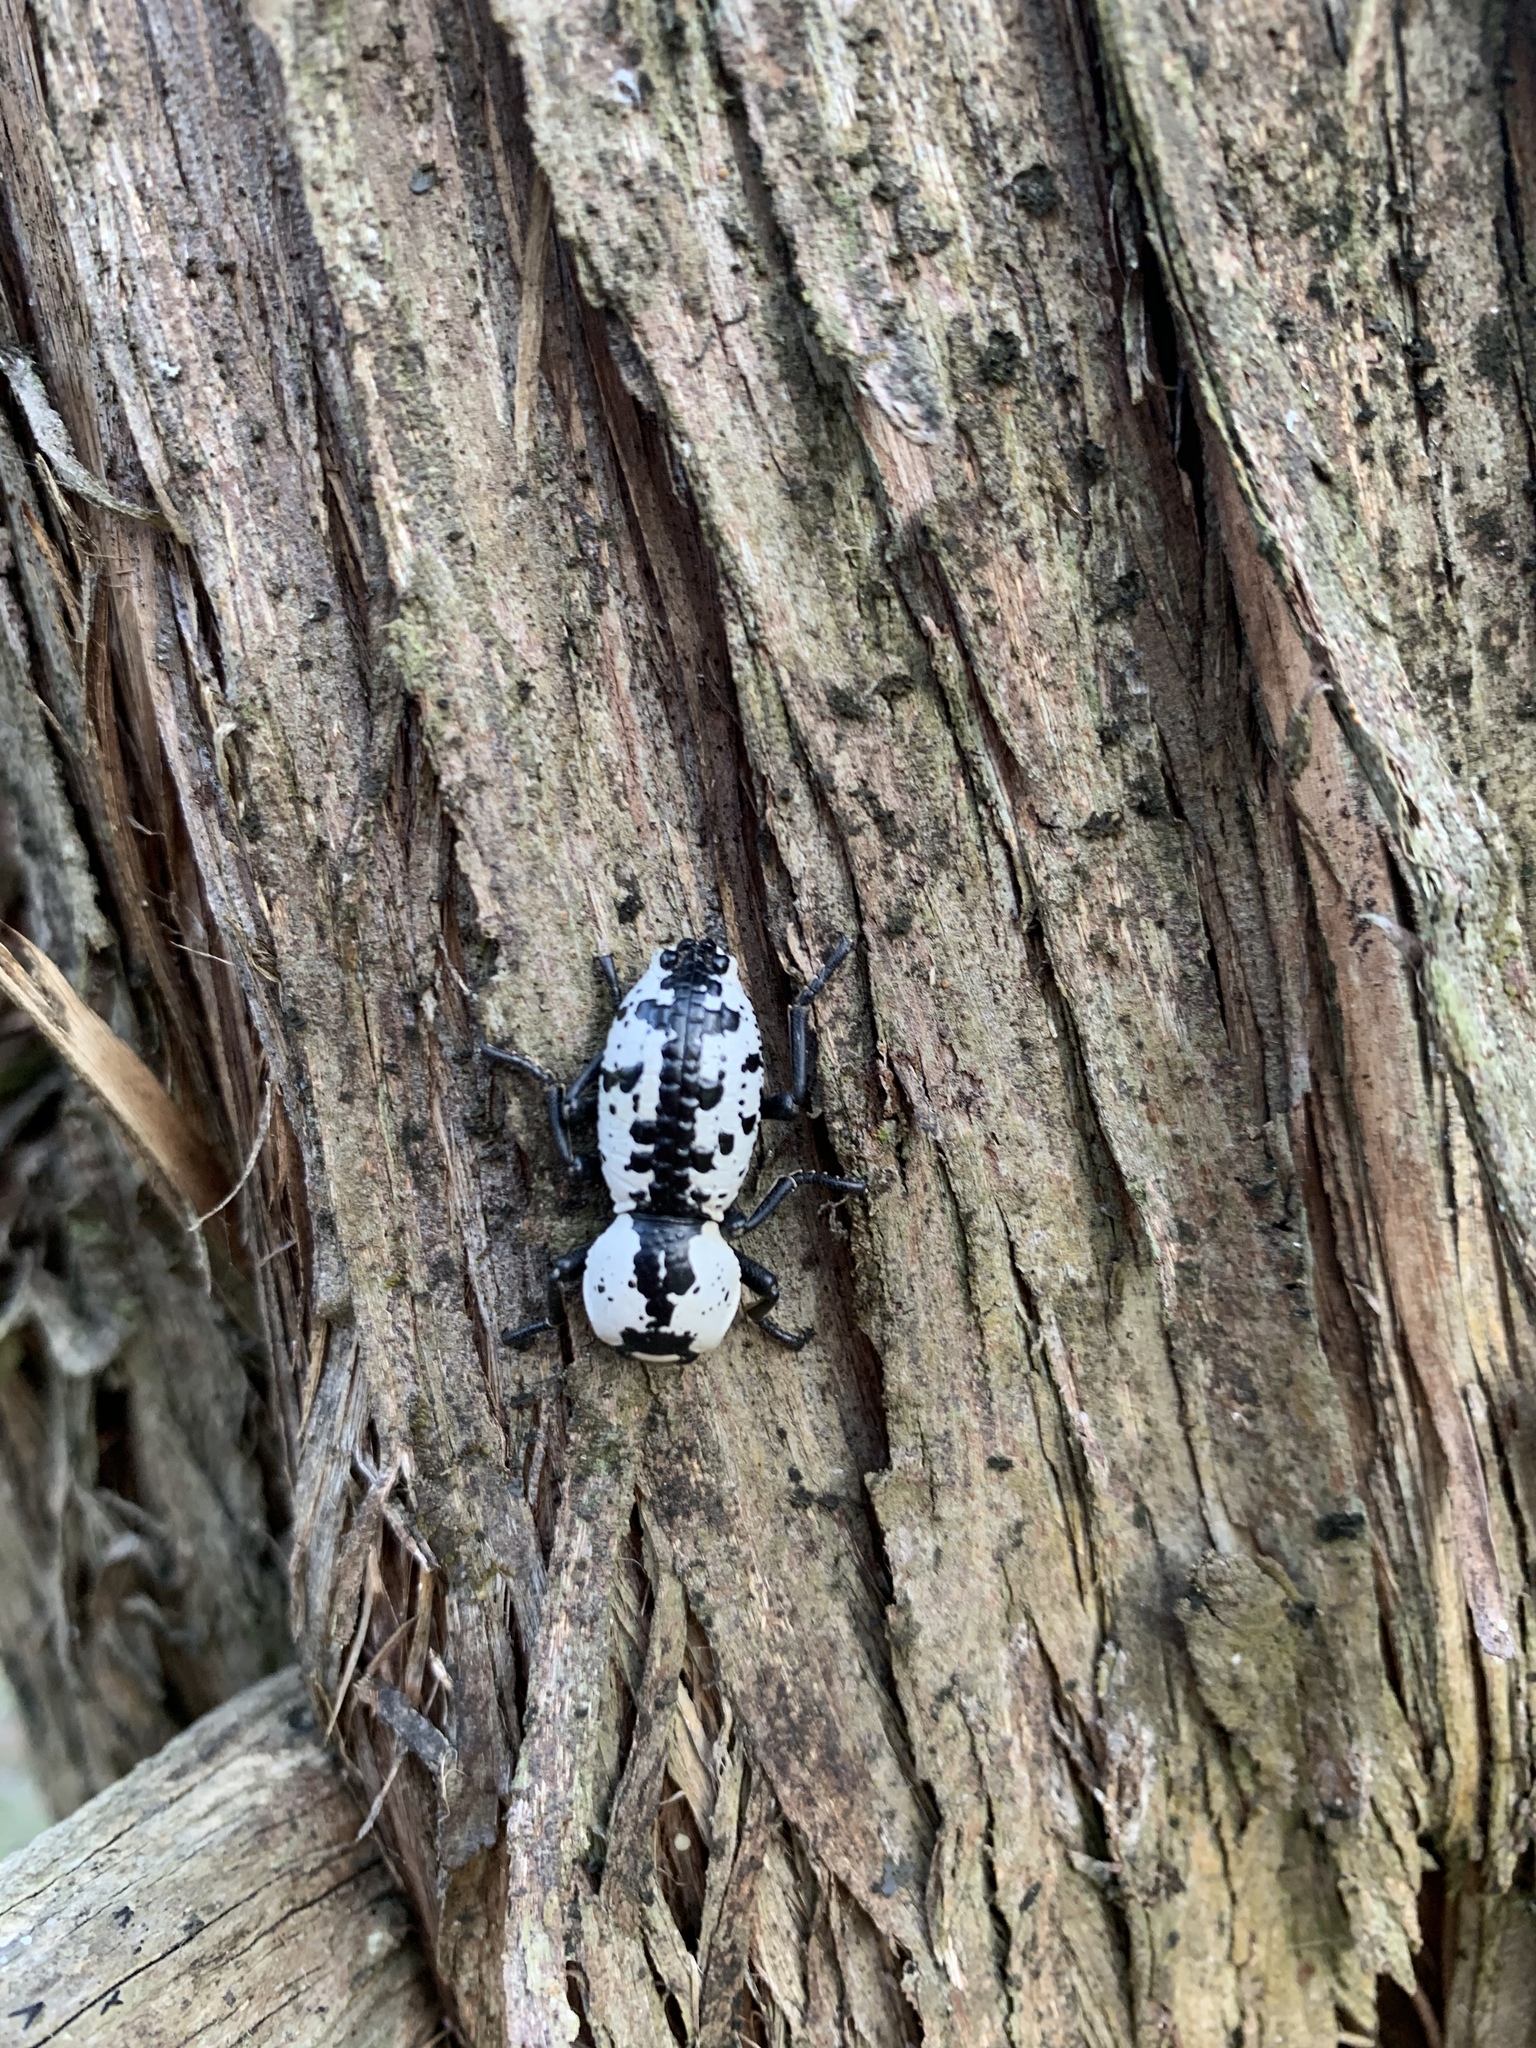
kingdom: Animalia
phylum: Arthropoda
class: Insecta
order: Coleoptera
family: Zopheridae
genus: Zopherus
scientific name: Zopherus nodulosus
